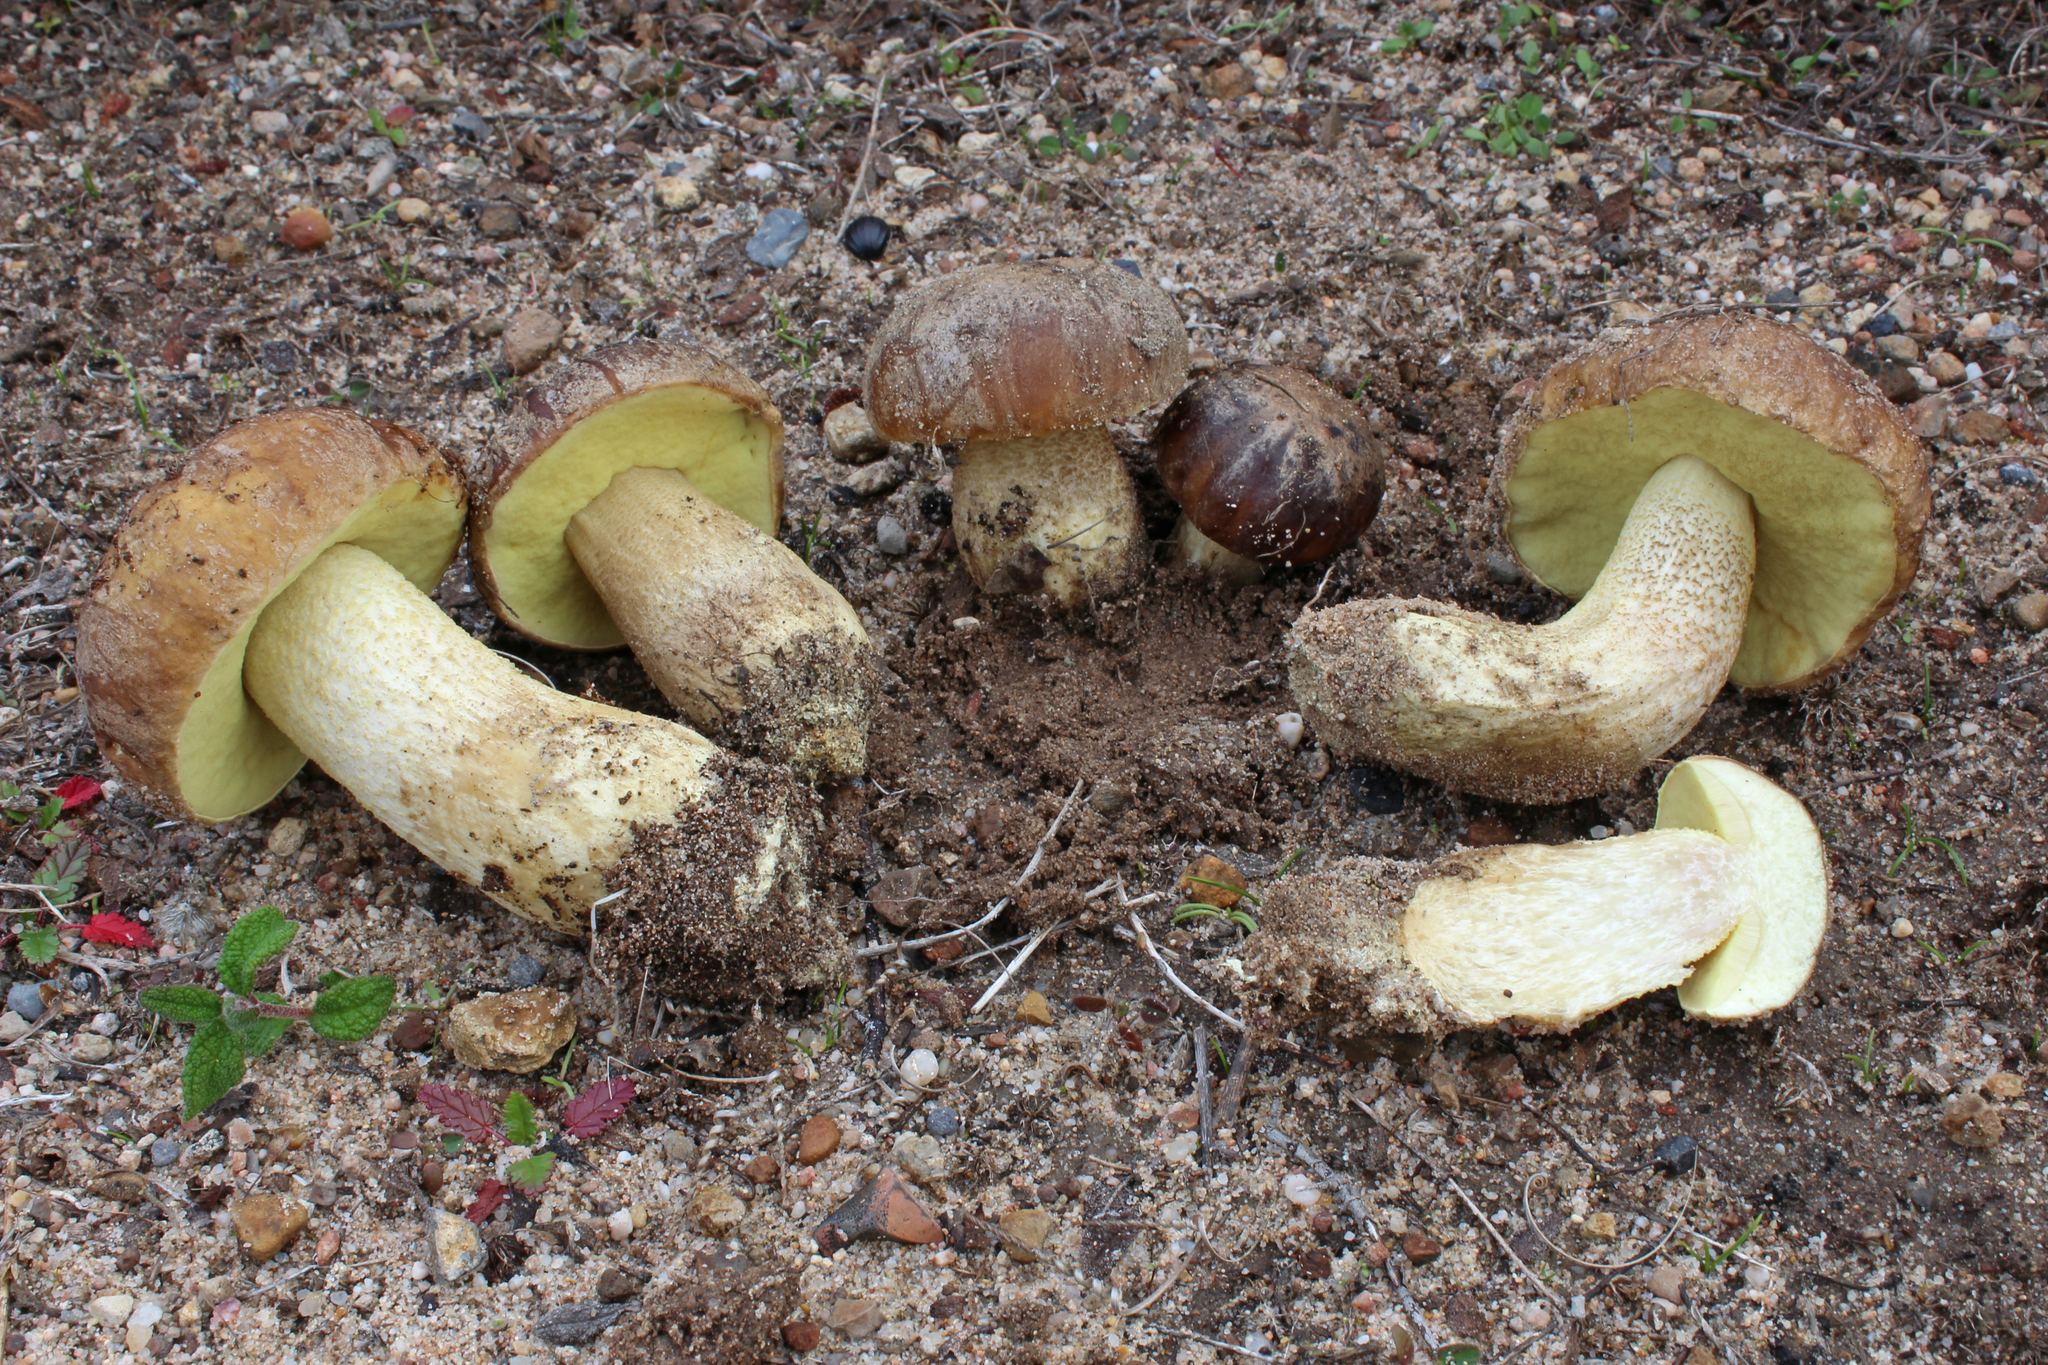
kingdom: Fungi
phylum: Basidiomycota
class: Agaricomycetes
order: Boletales
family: Boletaceae
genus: Leccinellum
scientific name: Leccinellum
